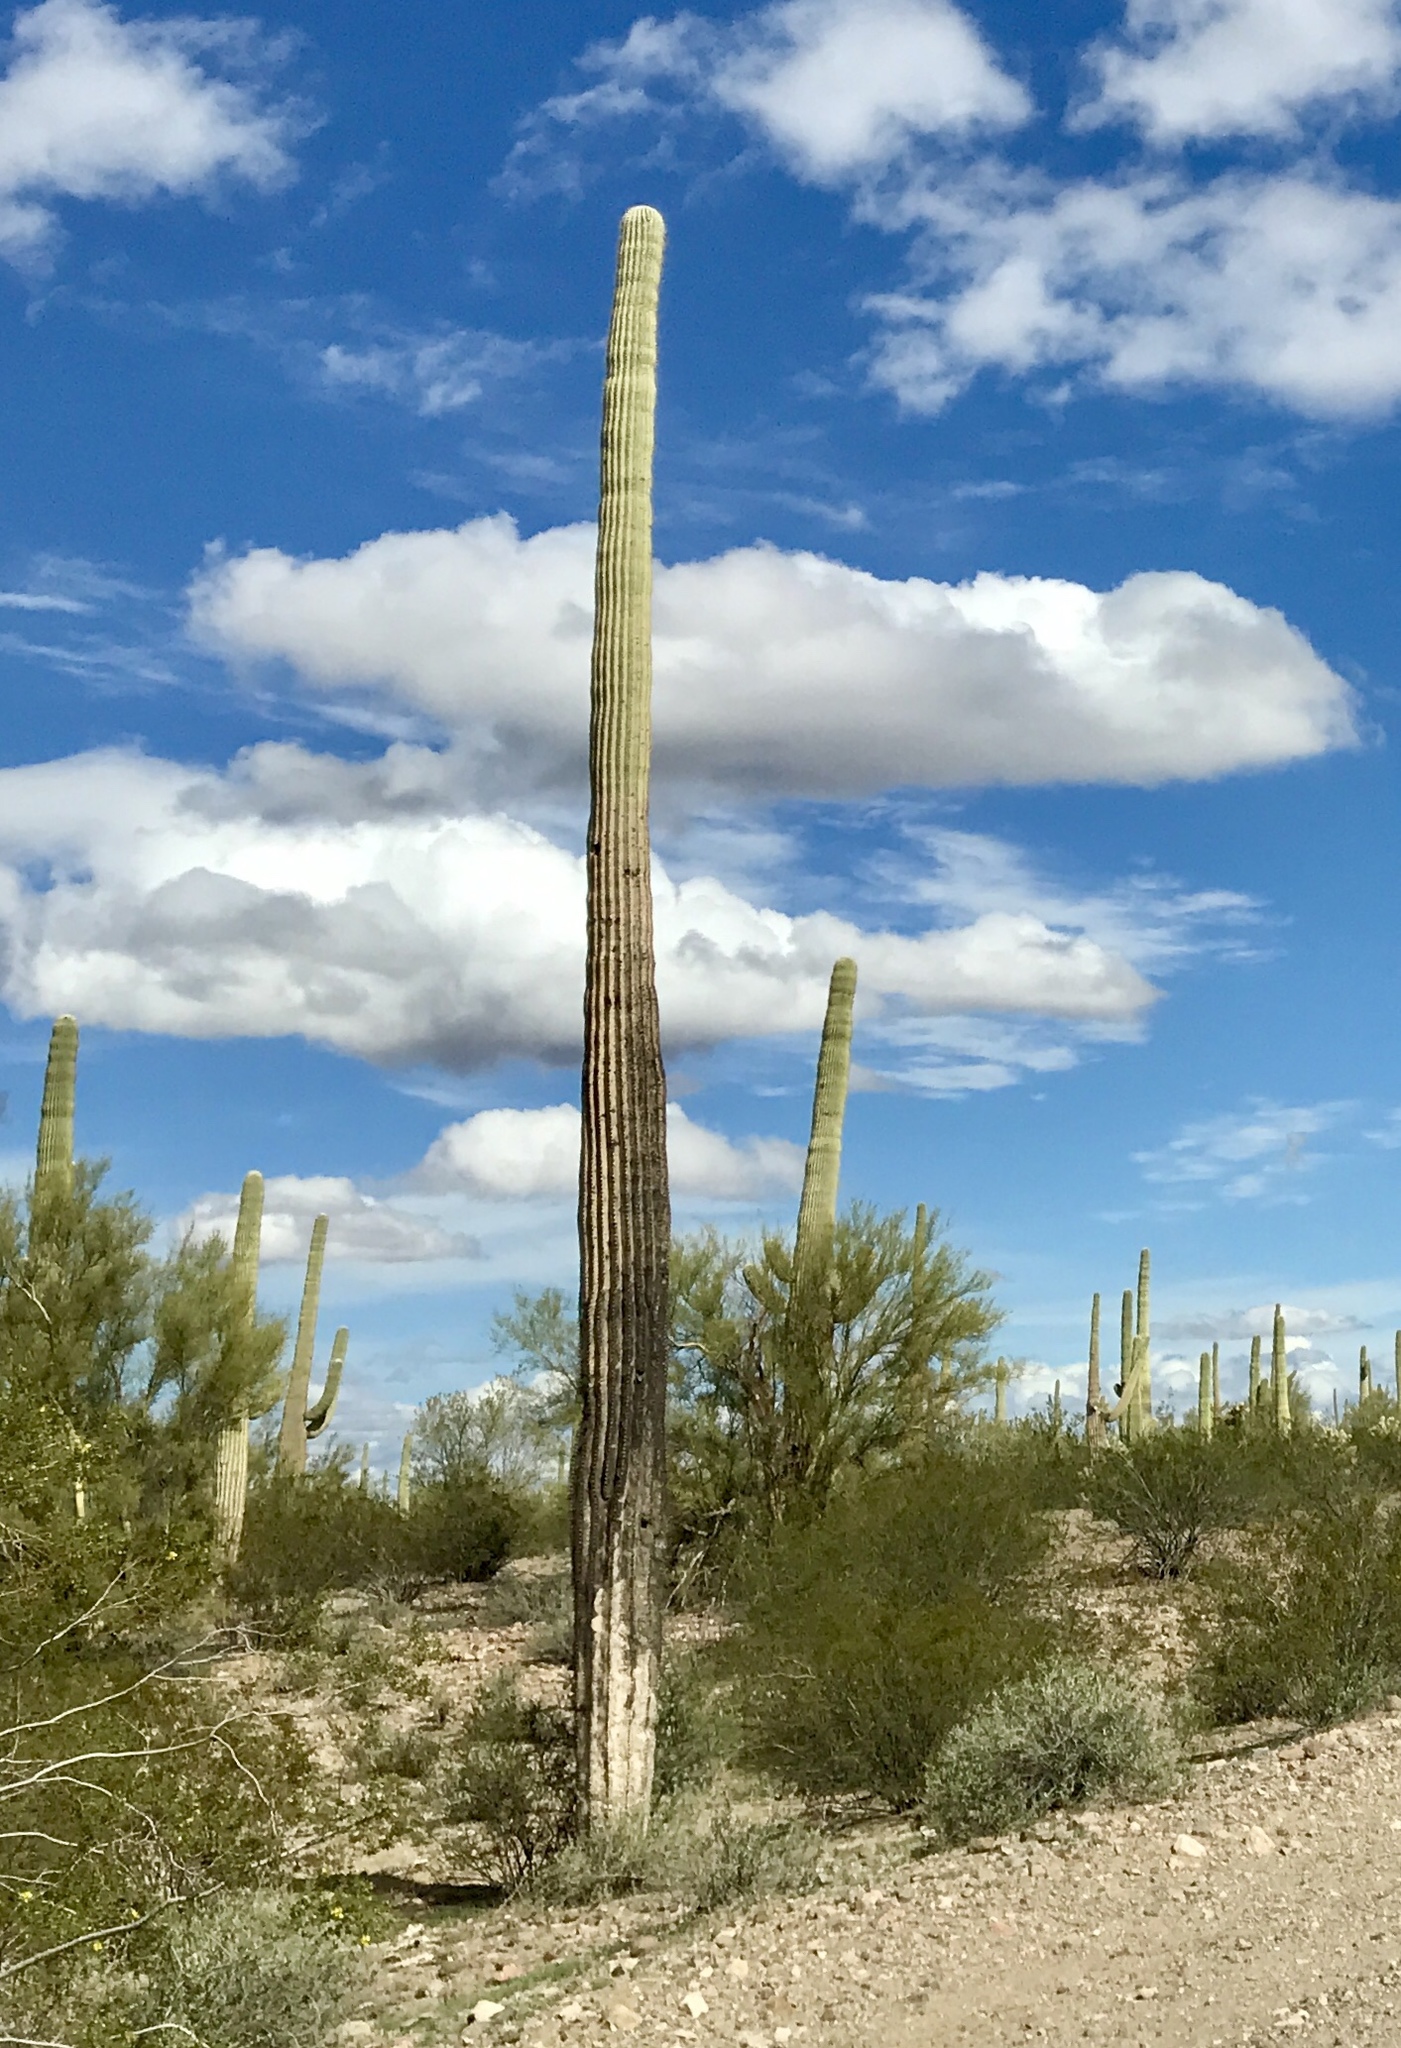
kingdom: Plantae
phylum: Tracheophyta
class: Magnoliopsida
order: Caryophyllales
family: Cactaceae
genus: Carnegiea
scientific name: Carnegiea gigantea
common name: Saguaro
